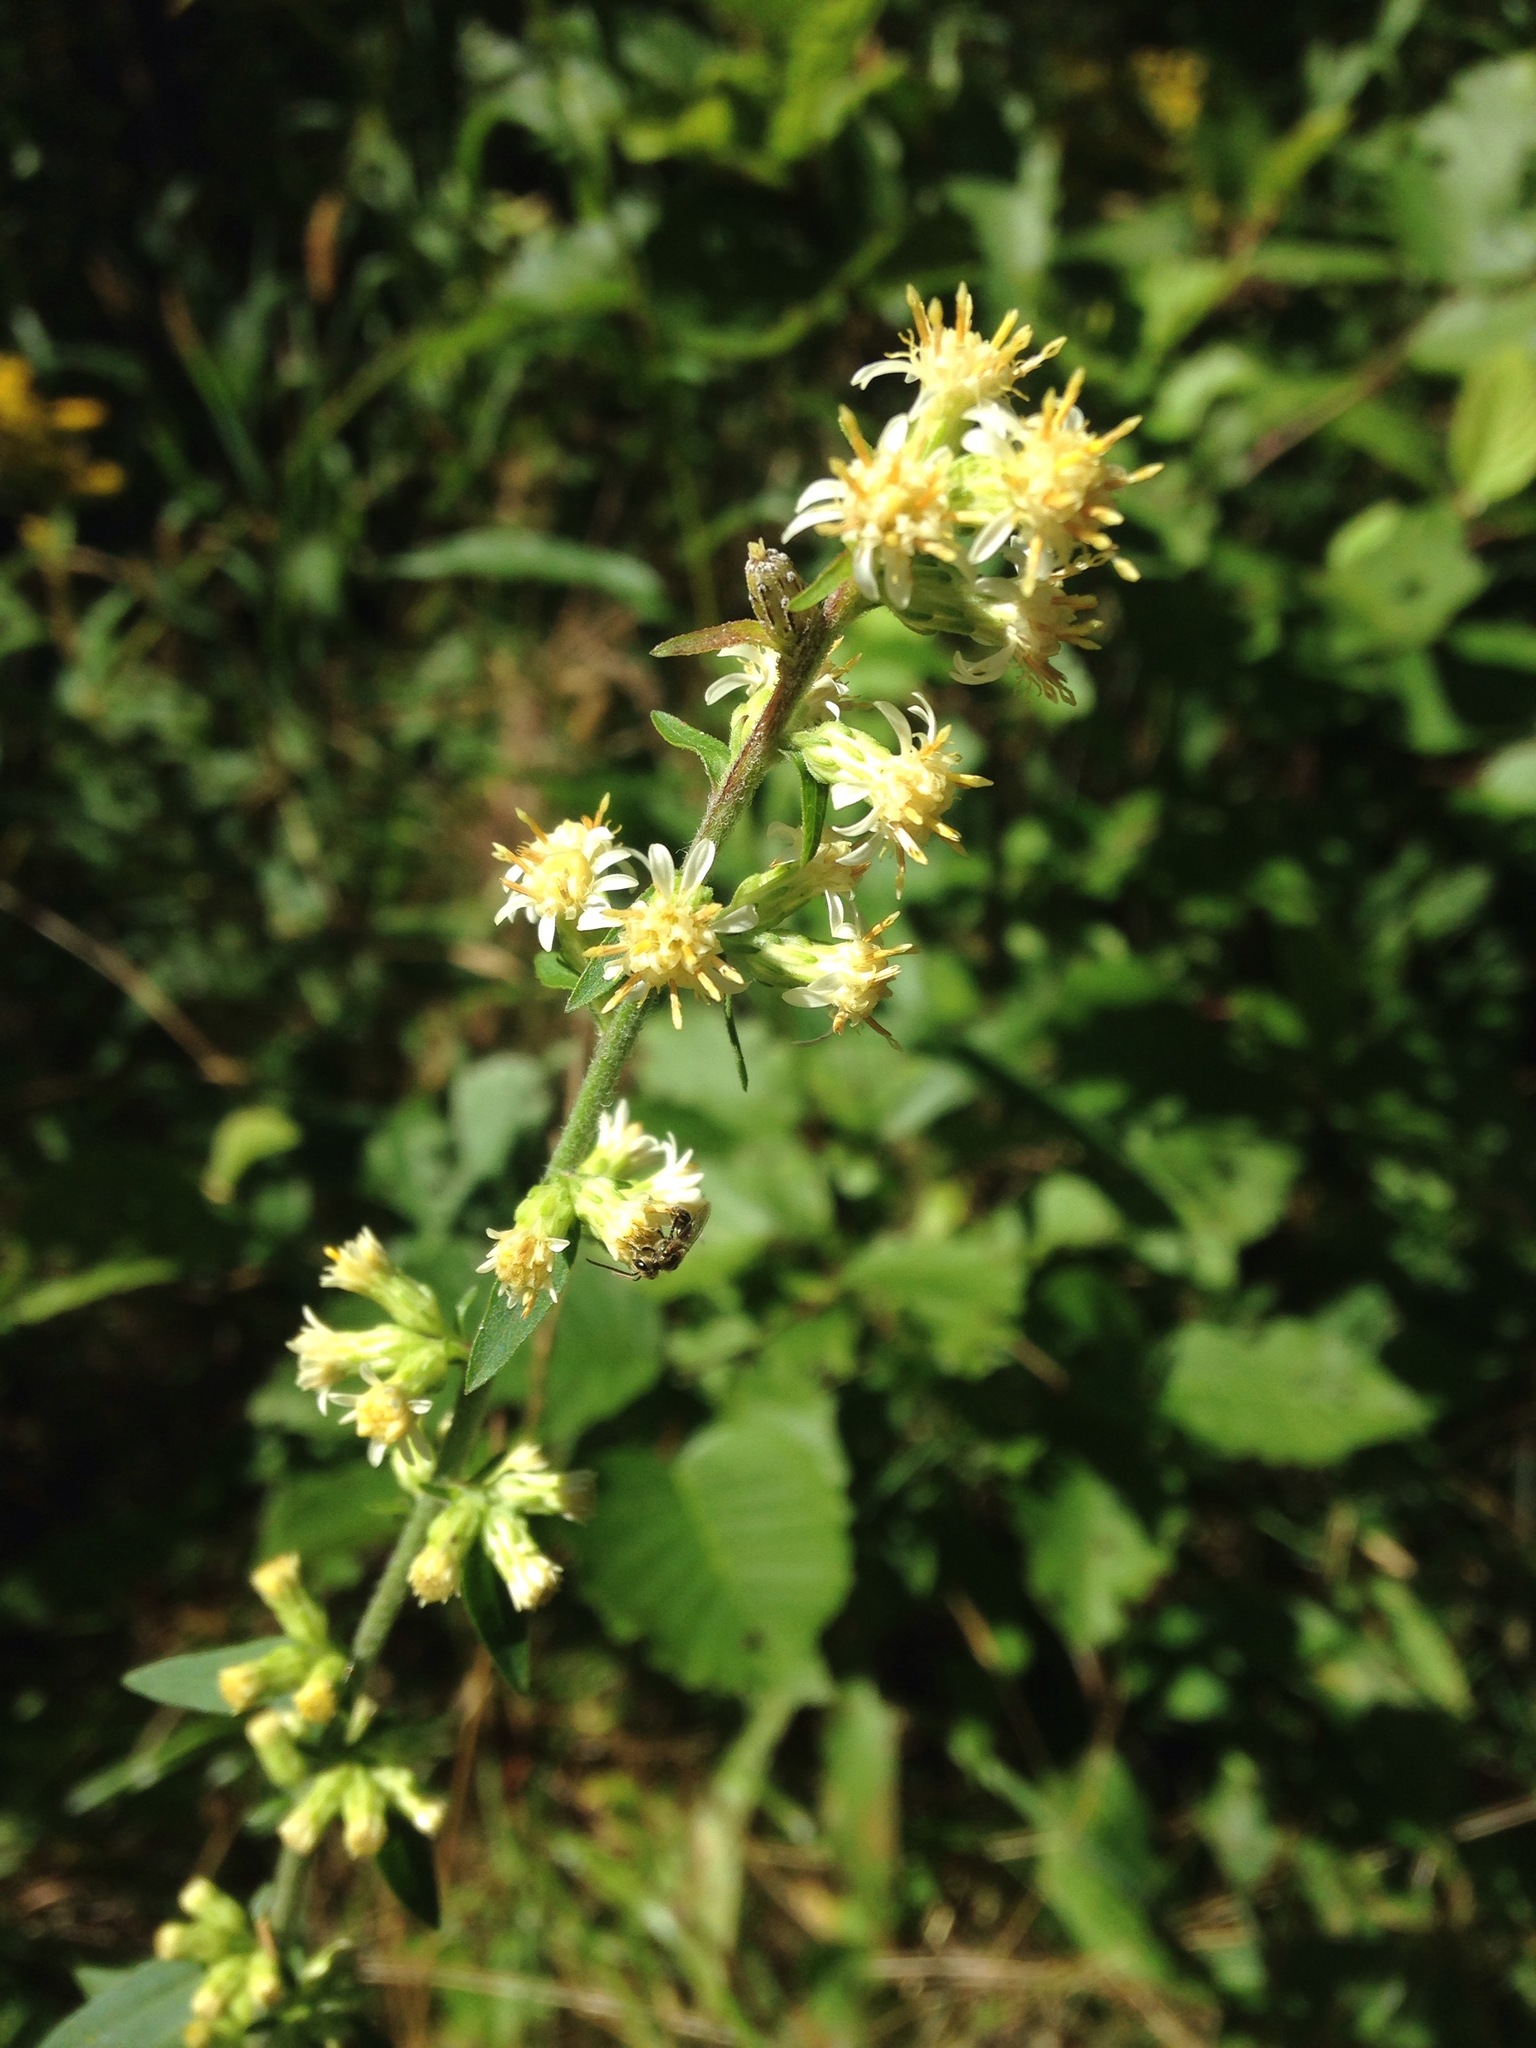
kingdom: Plantae
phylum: Tracheophyta
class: Magnoliopsida
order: Asterales
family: Asteraceae
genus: Solidago
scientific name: Solidago bicolor
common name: Silverrod
